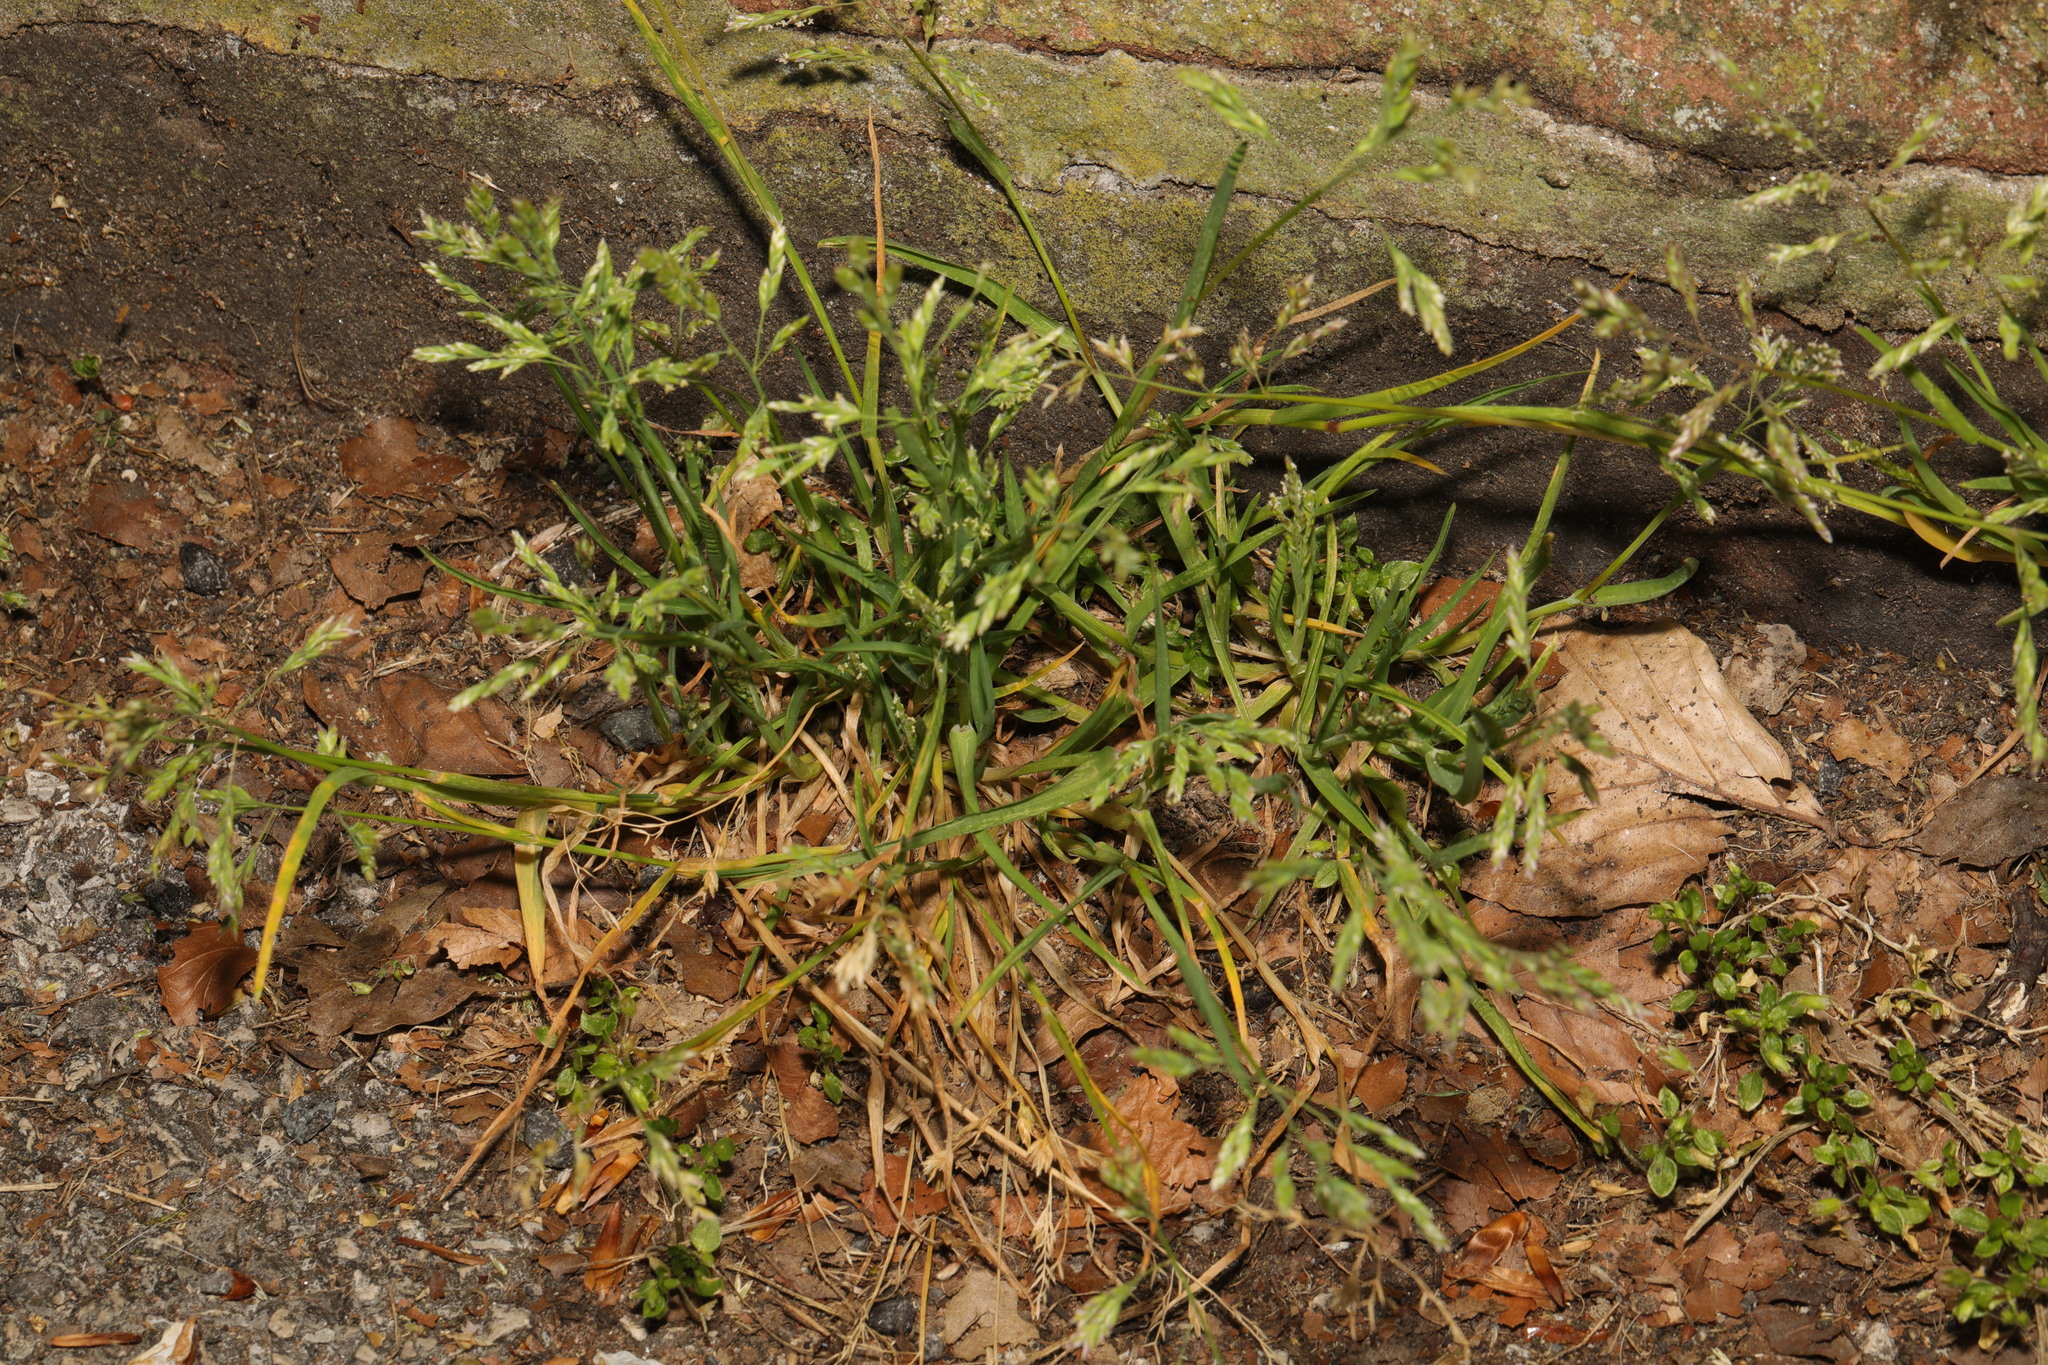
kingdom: Plantae
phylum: Tracheophyta
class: Liliopsida
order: Poales
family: Poaceae
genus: Poa
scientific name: Poa annua
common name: Annual bluegrass
